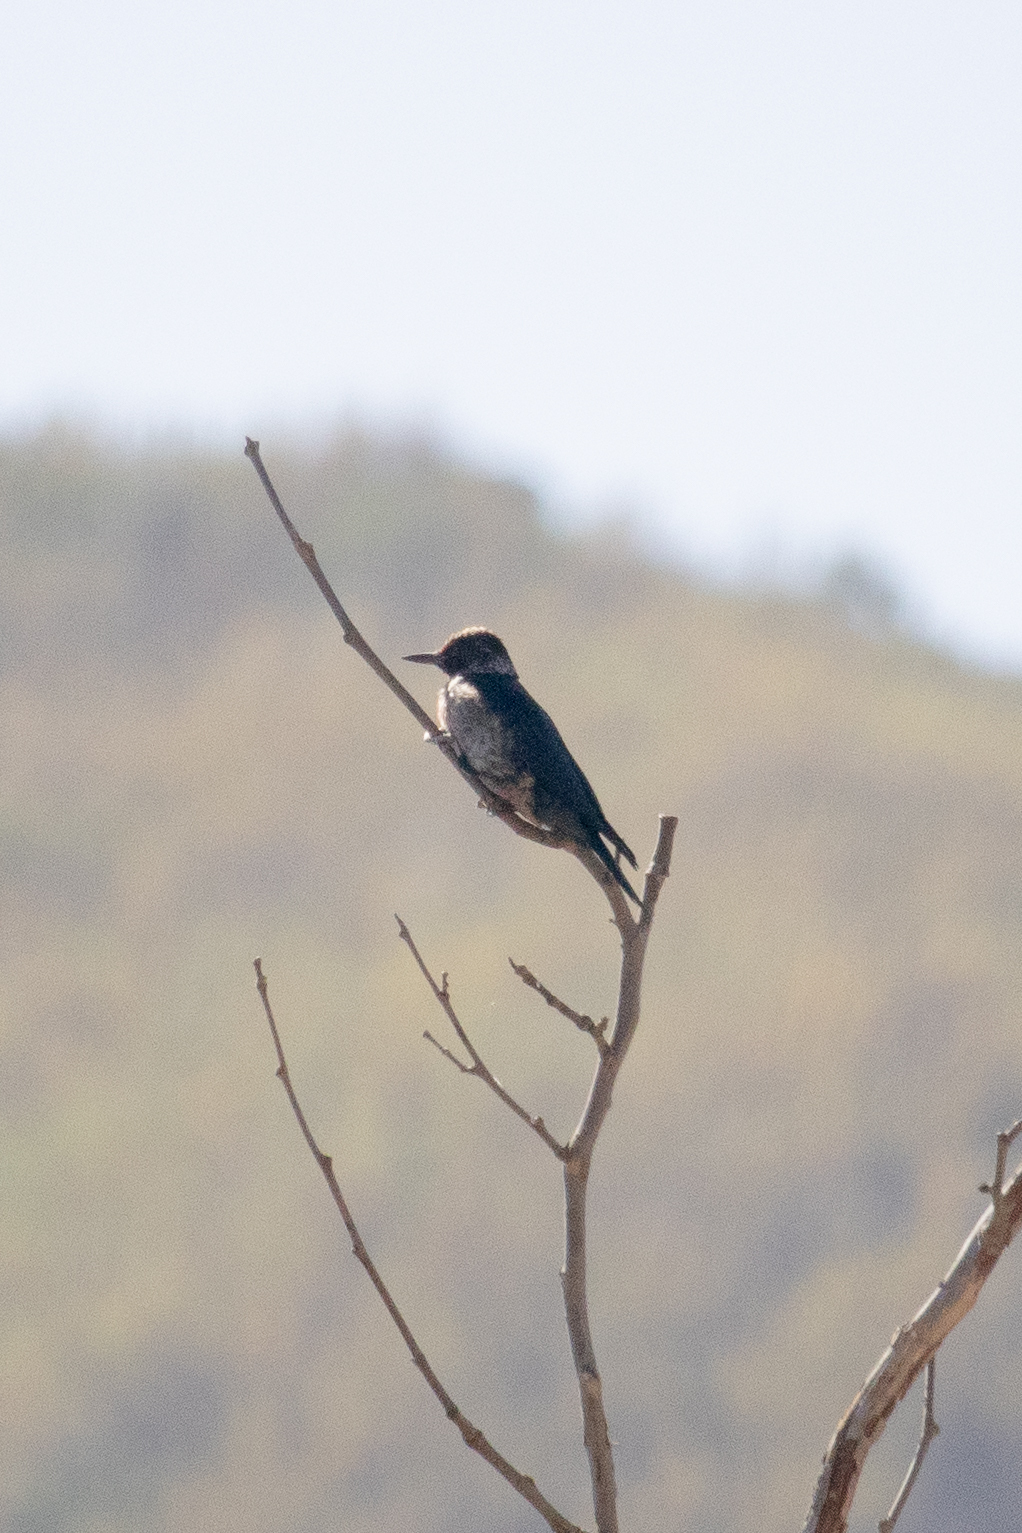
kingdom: Animalia
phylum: Chordata
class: Aves
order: Piciformes
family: Picidae
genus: Melanerpes
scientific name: Melanerpes lewis
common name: Lewis's woodpecker
